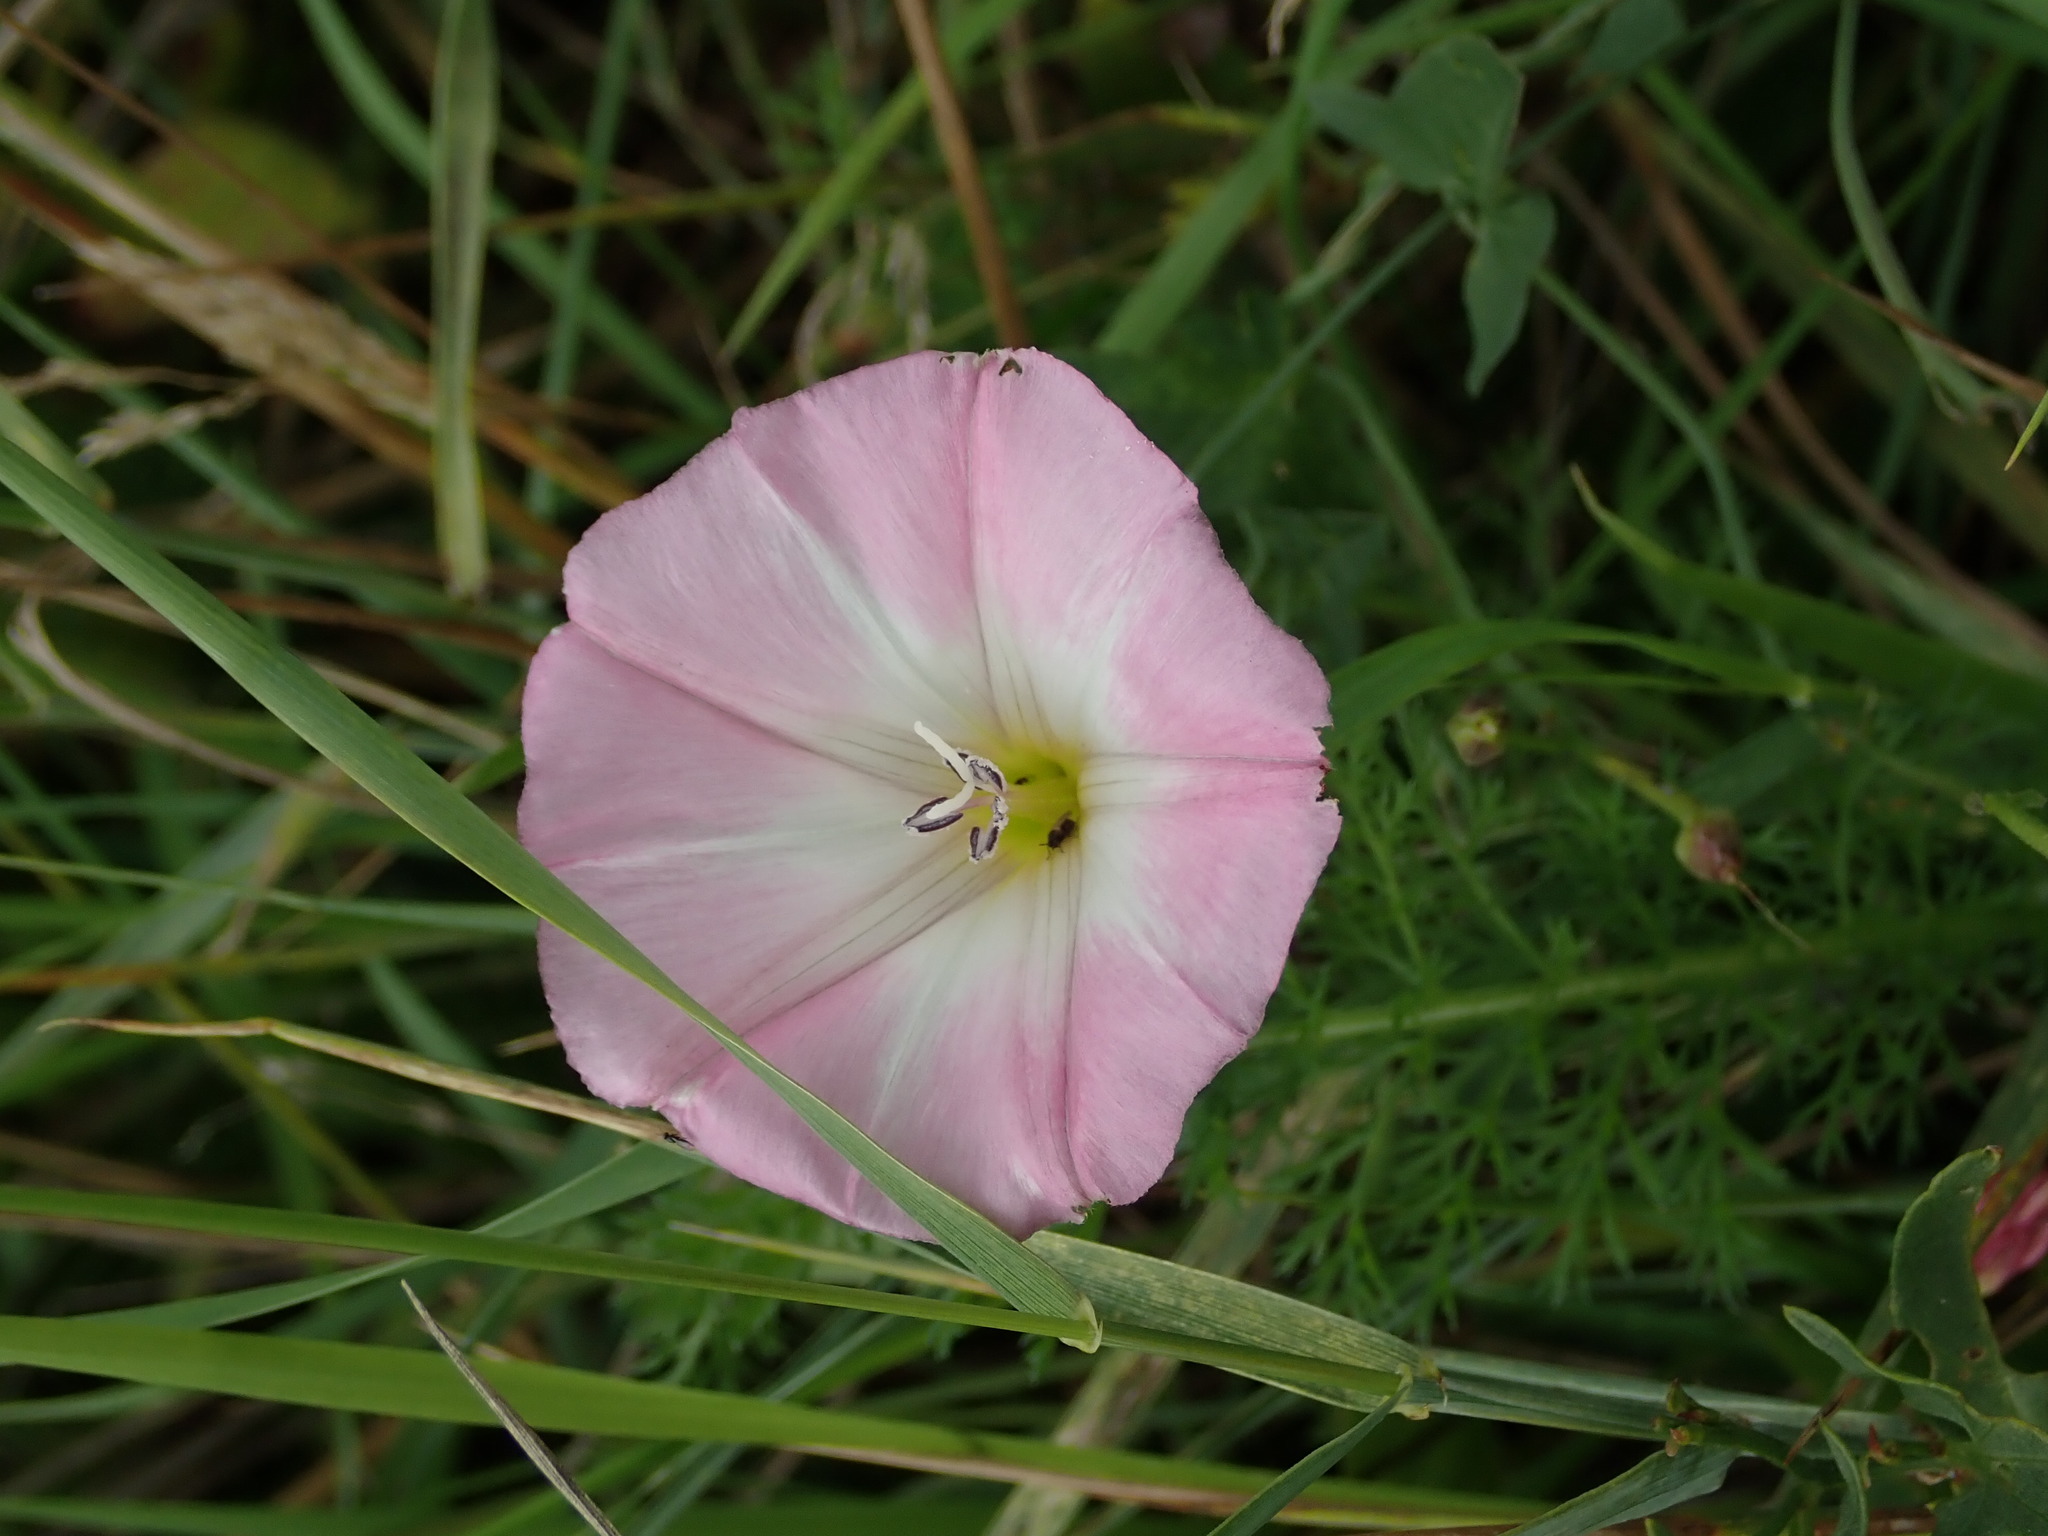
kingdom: Plantae
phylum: Tracheophyta
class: Magnoliopsida
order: Solanales
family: Convolvulaceae
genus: Convolvulus
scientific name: Convolvulus arvensis
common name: Field bindweed
